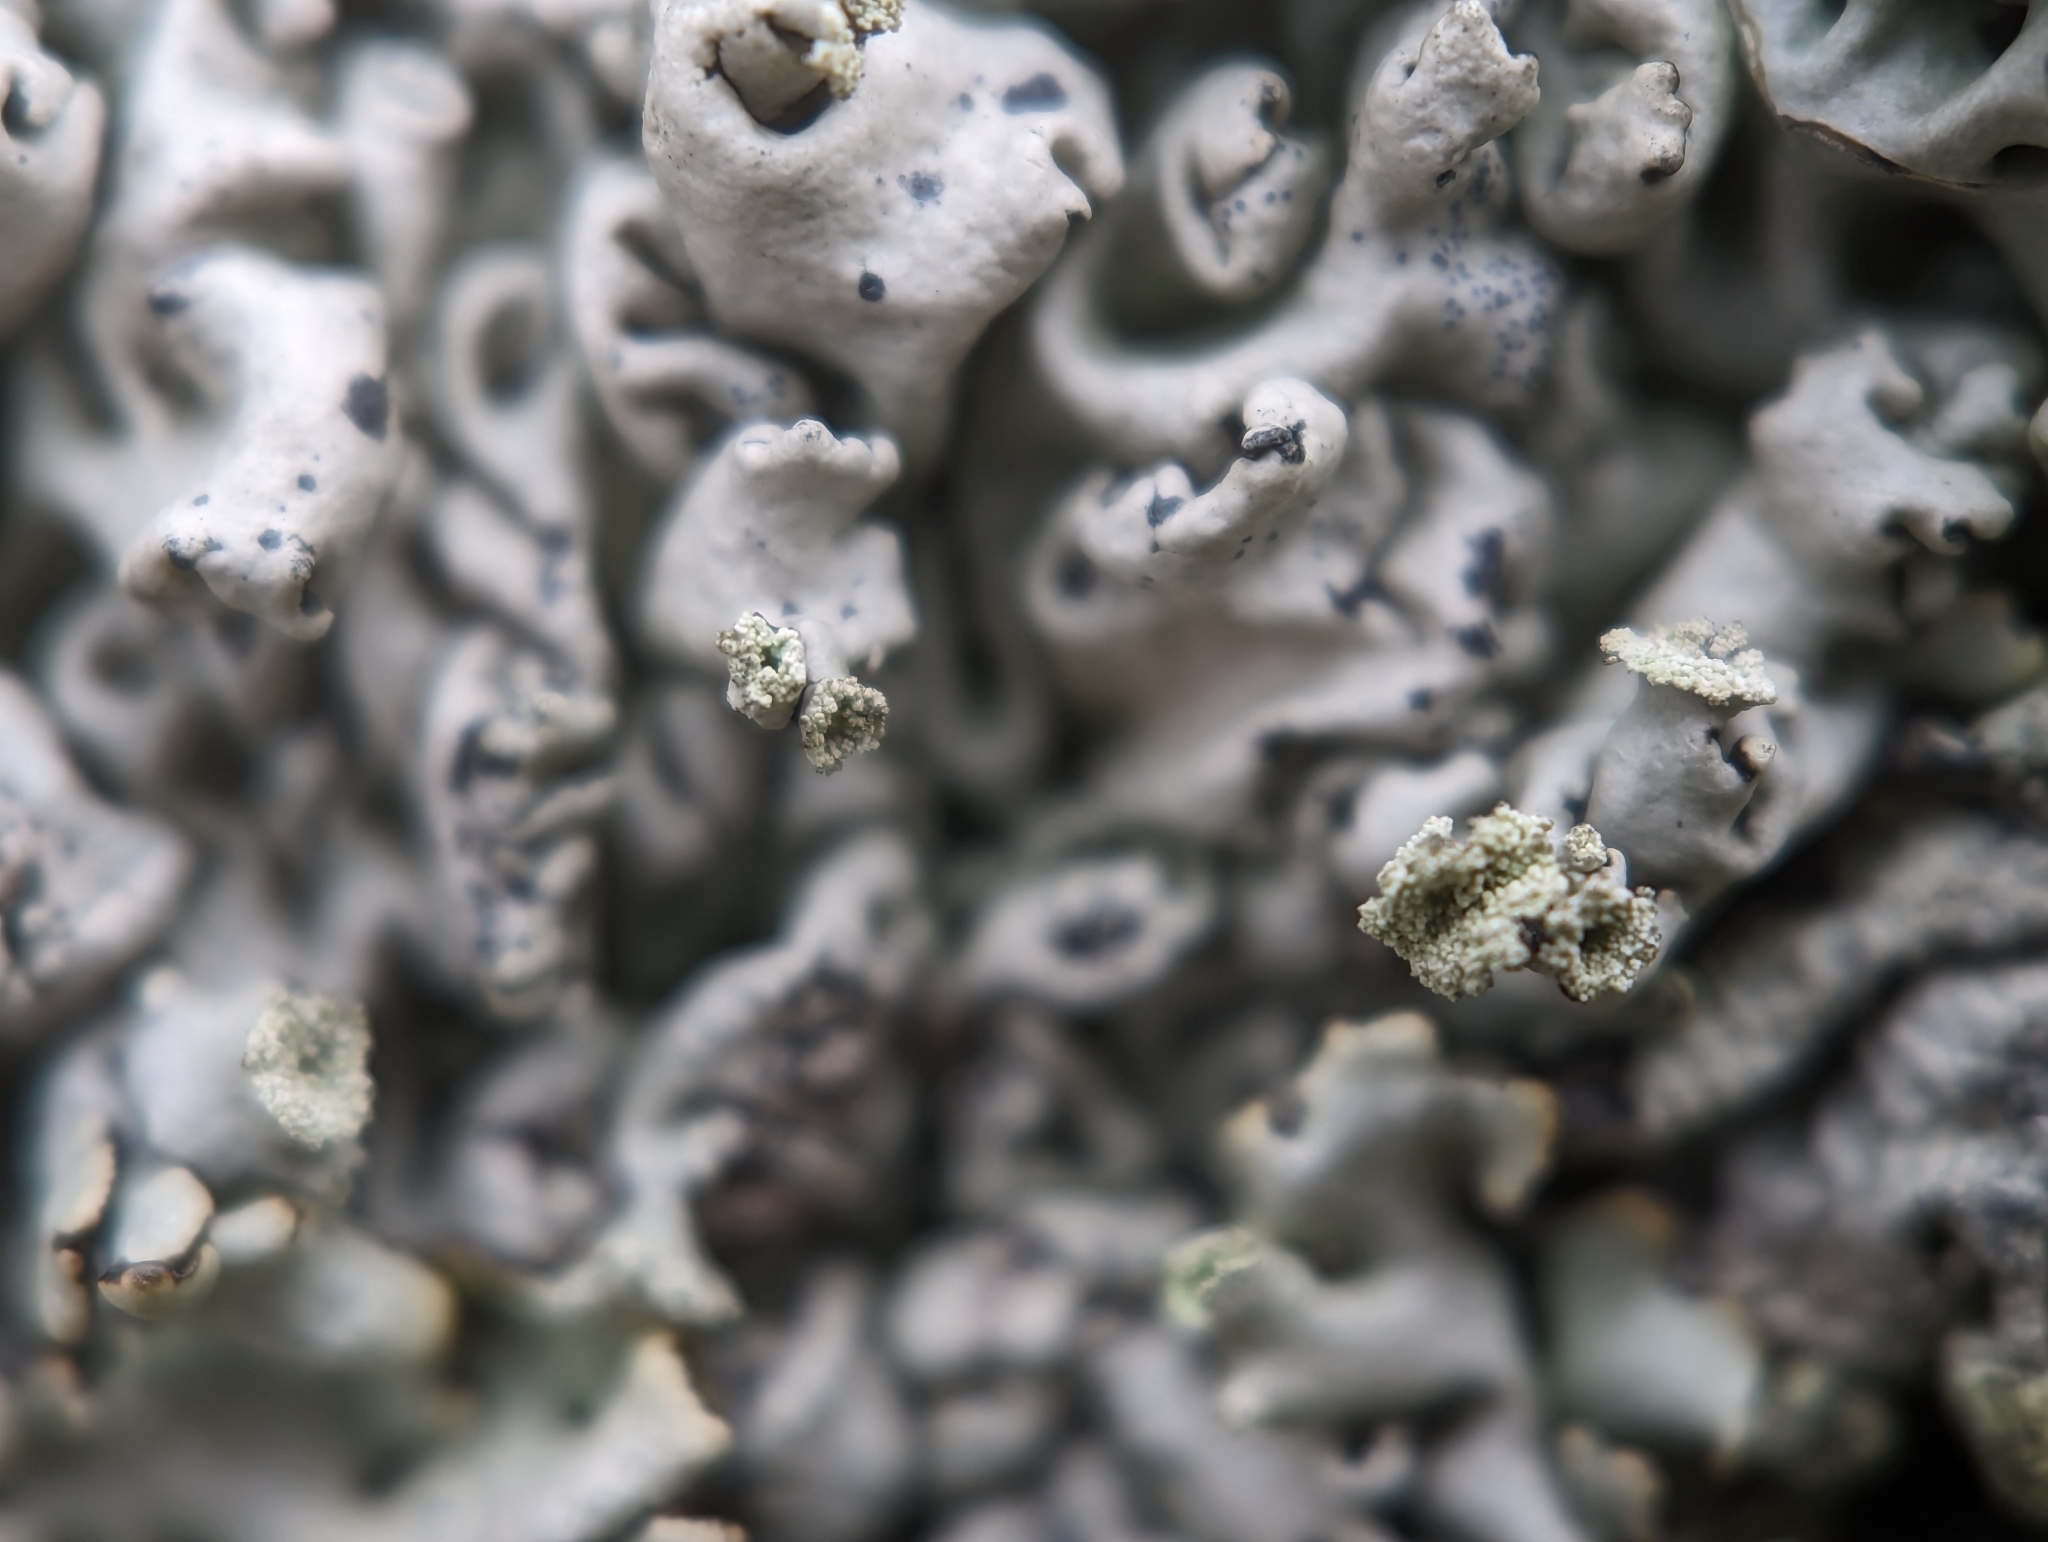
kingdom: Fungi
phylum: Ascomycota
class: Lecanoromycetes
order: Lecanorales
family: Parmeliaceae
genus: Hypogymnia
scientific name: Hypogymnia physodes
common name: Dark crottle
